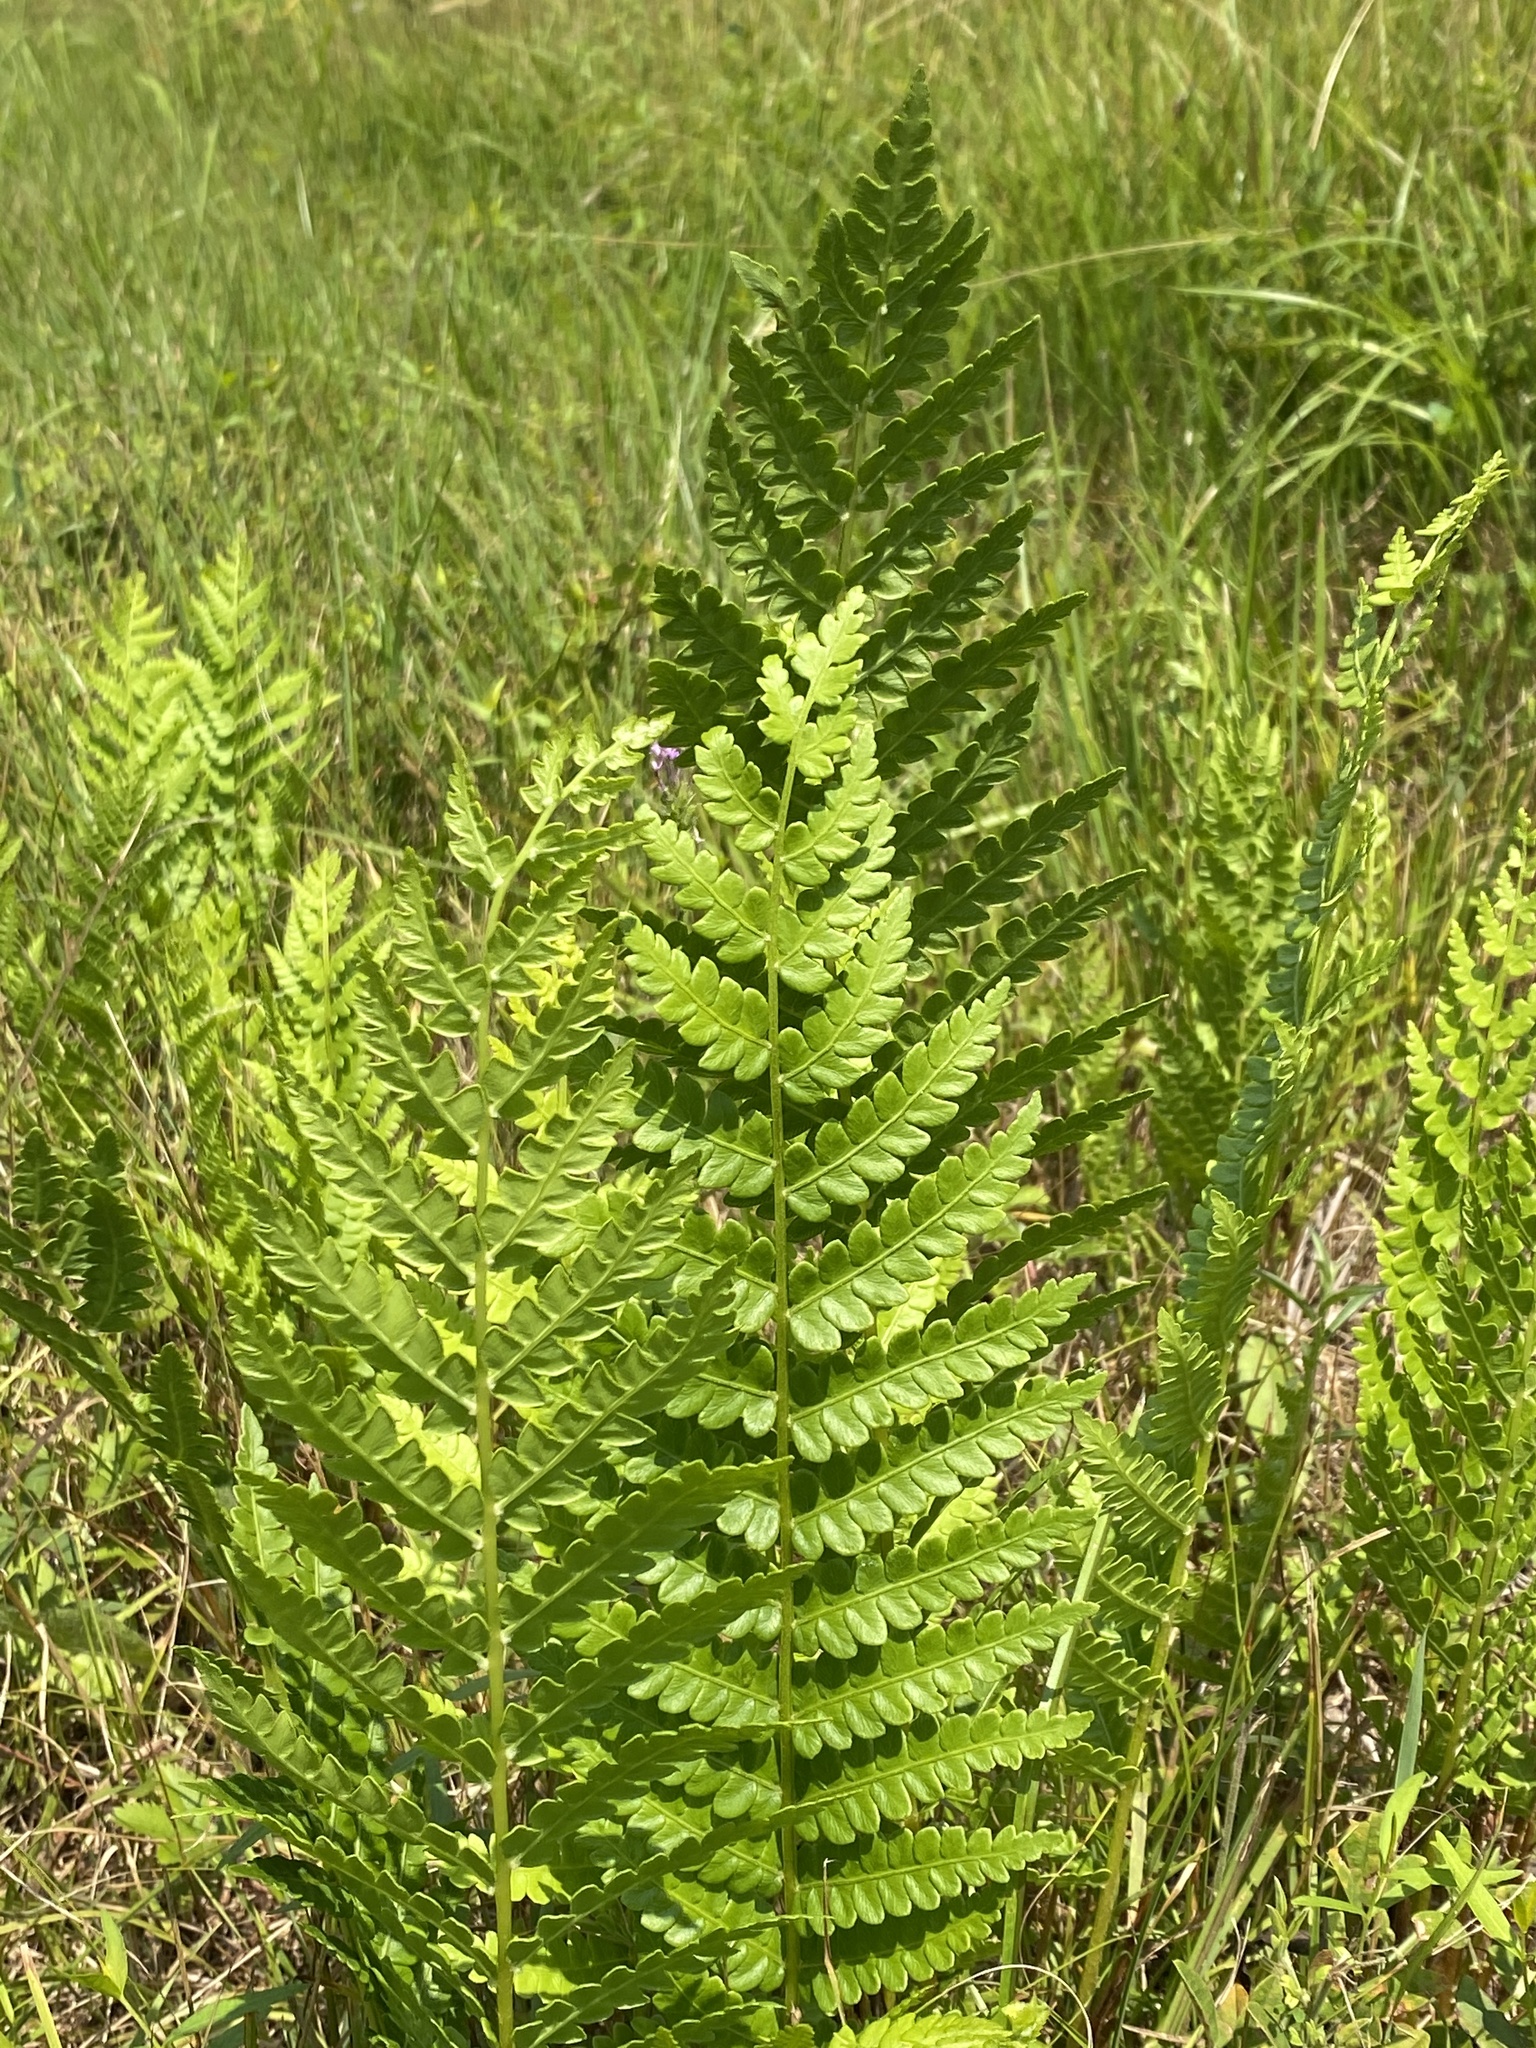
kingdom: Plantae
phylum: Tracheophyta
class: Polypodiopsida
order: Osmundales
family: Osmundaceae
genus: Osmundastrum
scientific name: Osmundastrum cinnamomeum
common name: Cinnamon fern
